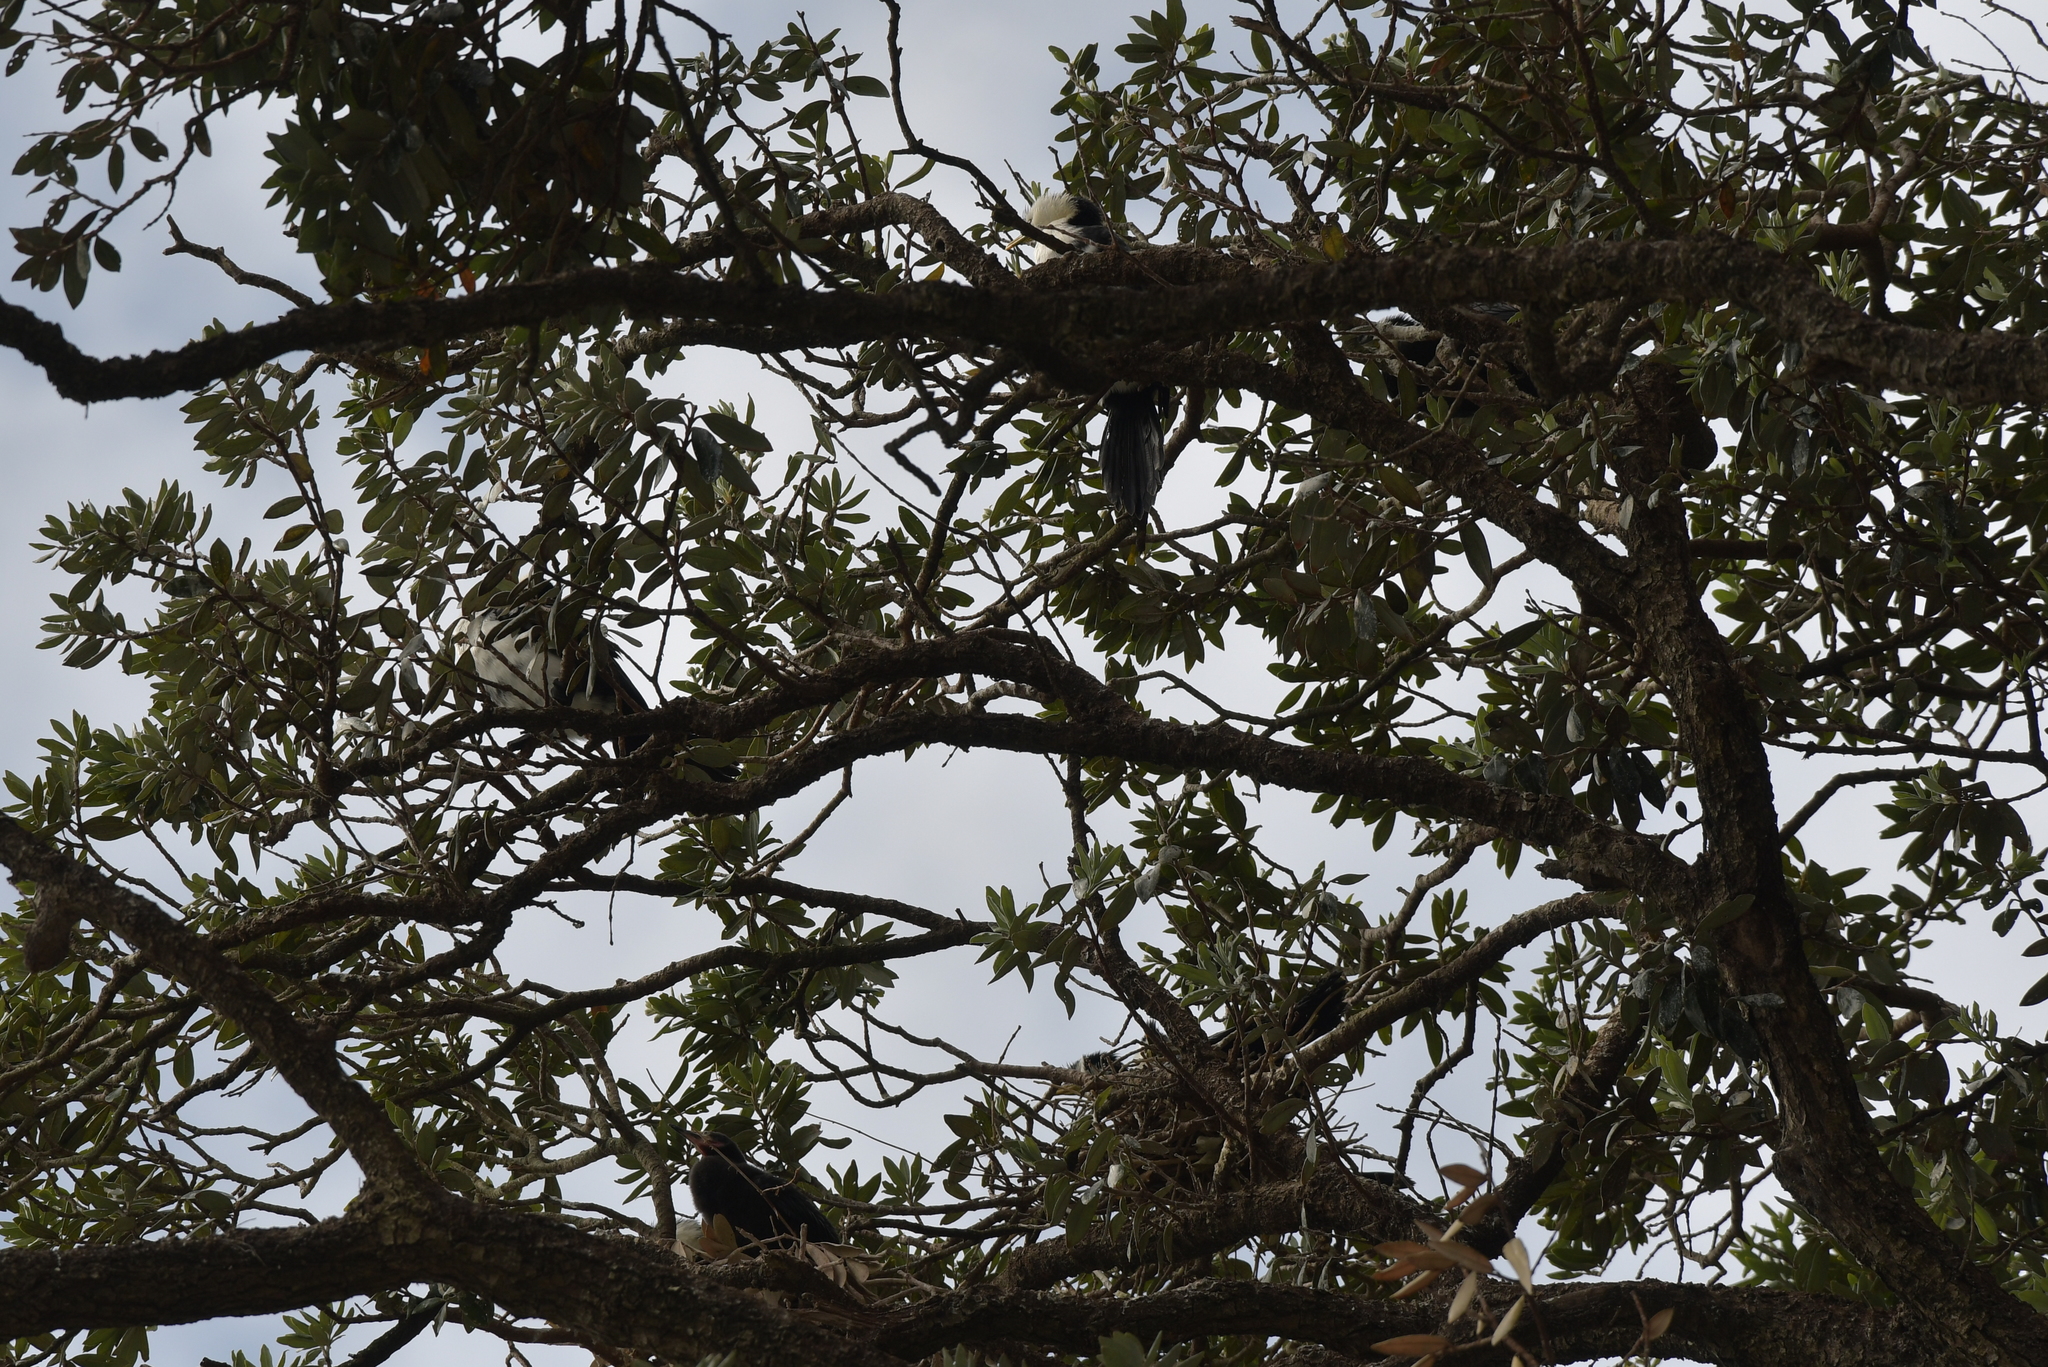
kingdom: Animalia
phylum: Chordata
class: Aves
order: Suliformes
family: Phalacrocoracidae
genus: Microcarbo
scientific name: Microcarbo melanoleucos
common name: Little pied cormorant
